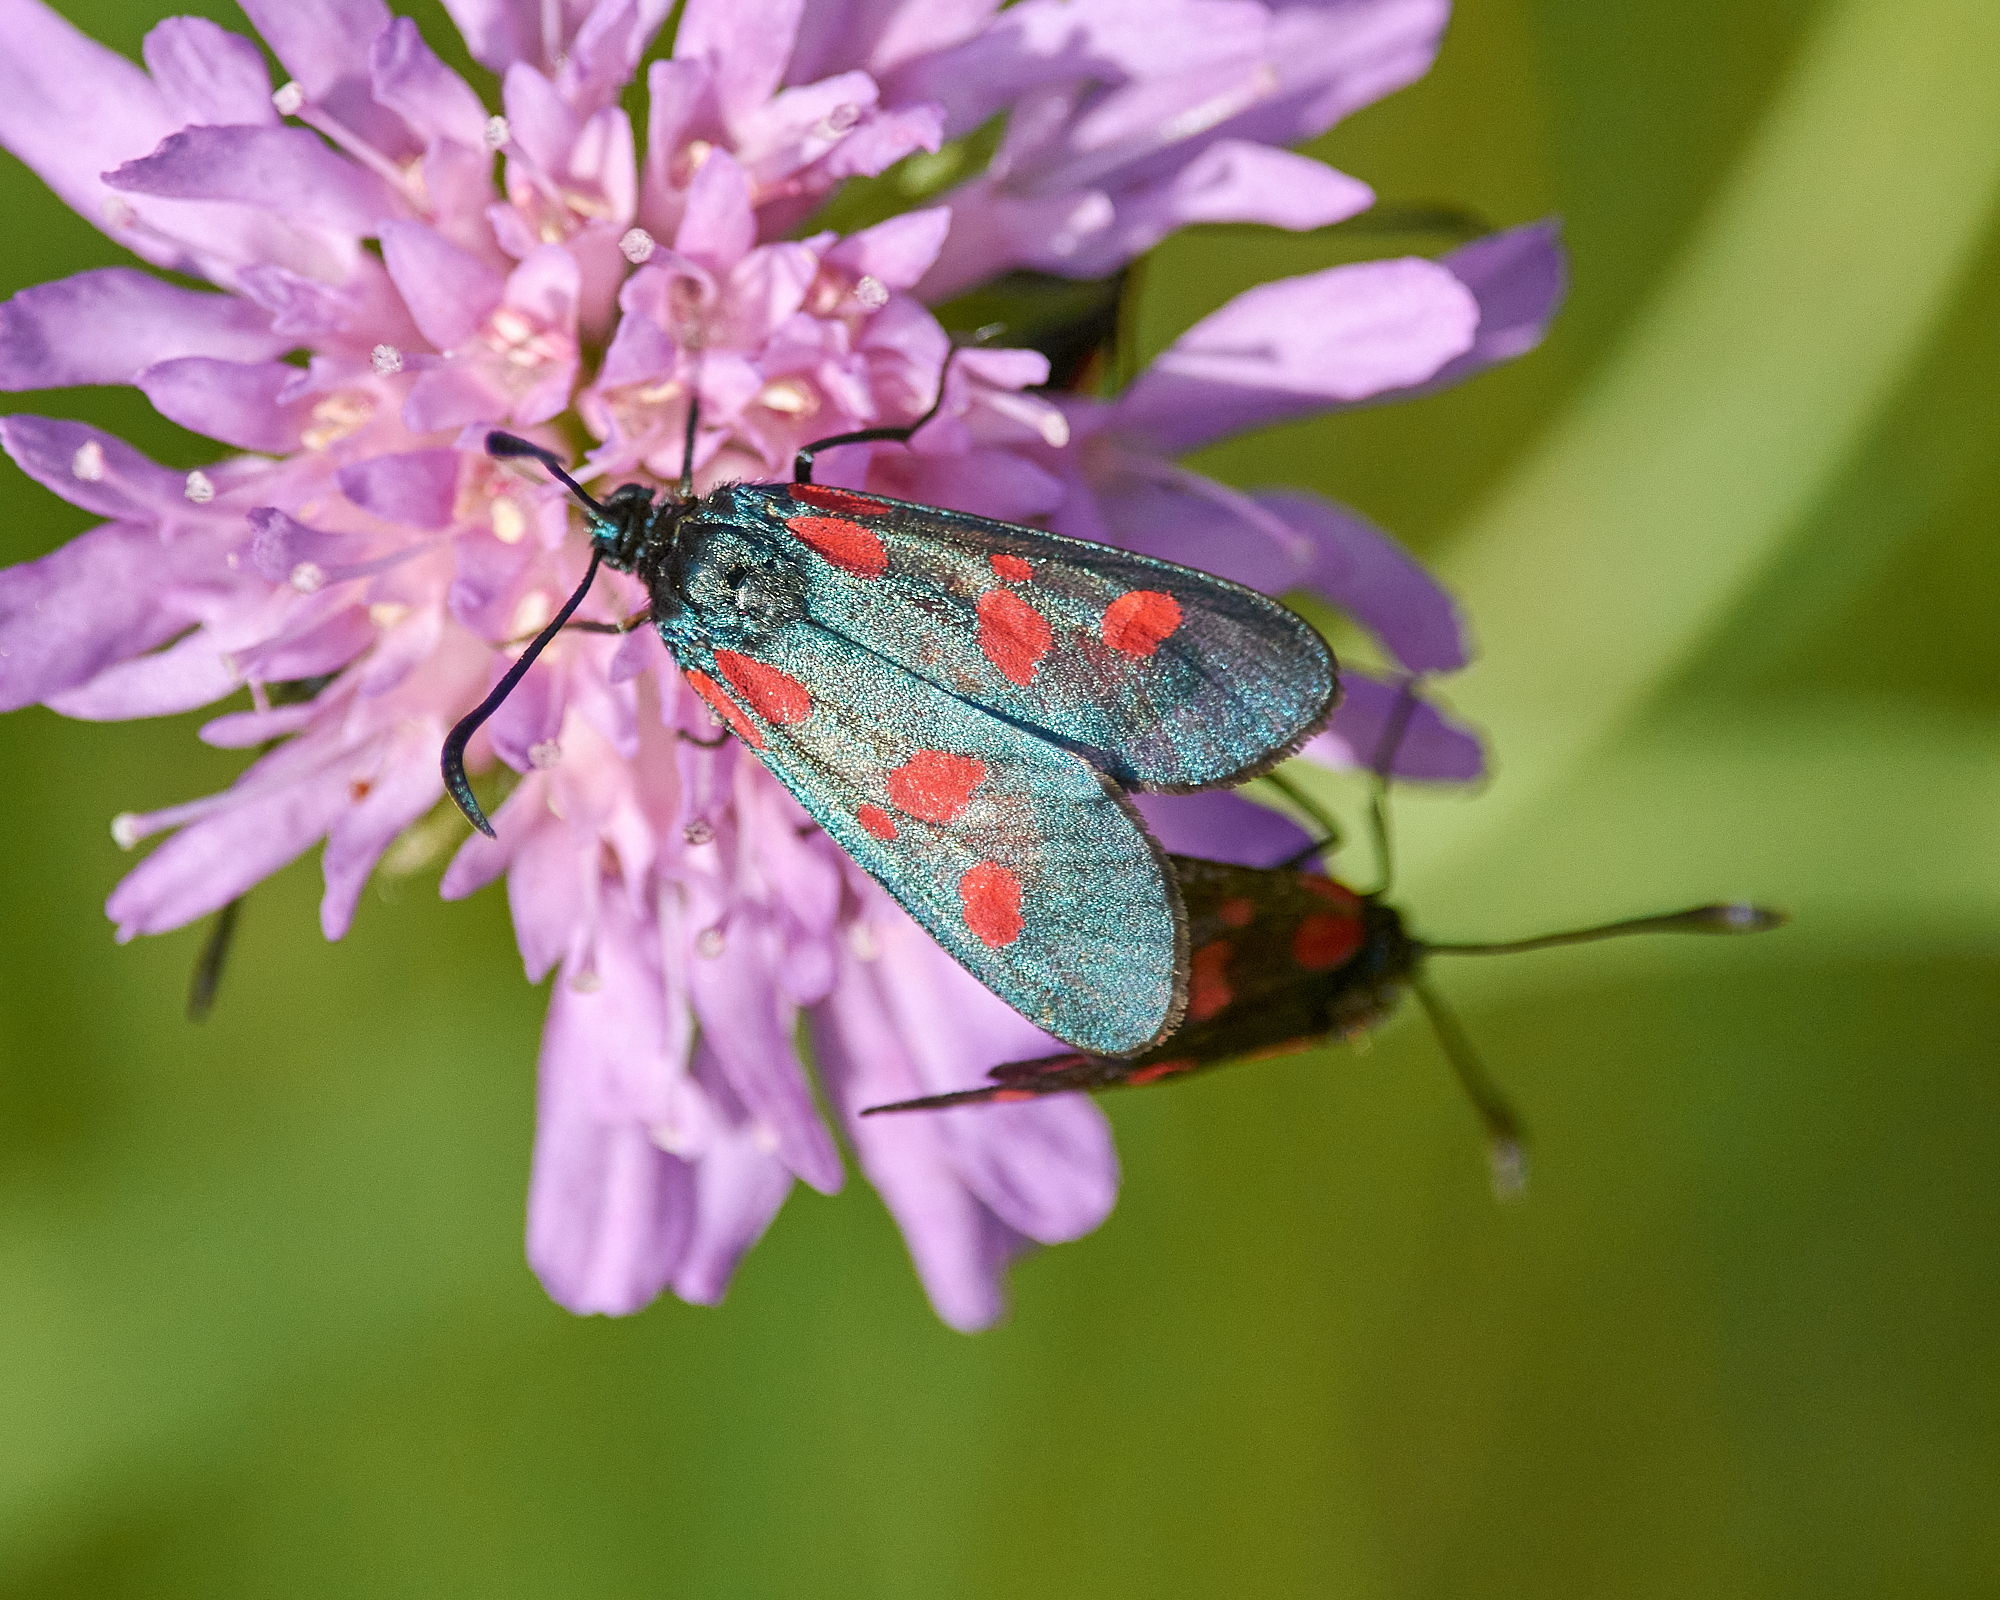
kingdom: Animalia
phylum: Arthropoda
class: Insecta
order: Lepidoptera
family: Zygaenidae
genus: Zygaena
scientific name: Zygaena viciae
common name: New forest burnet
